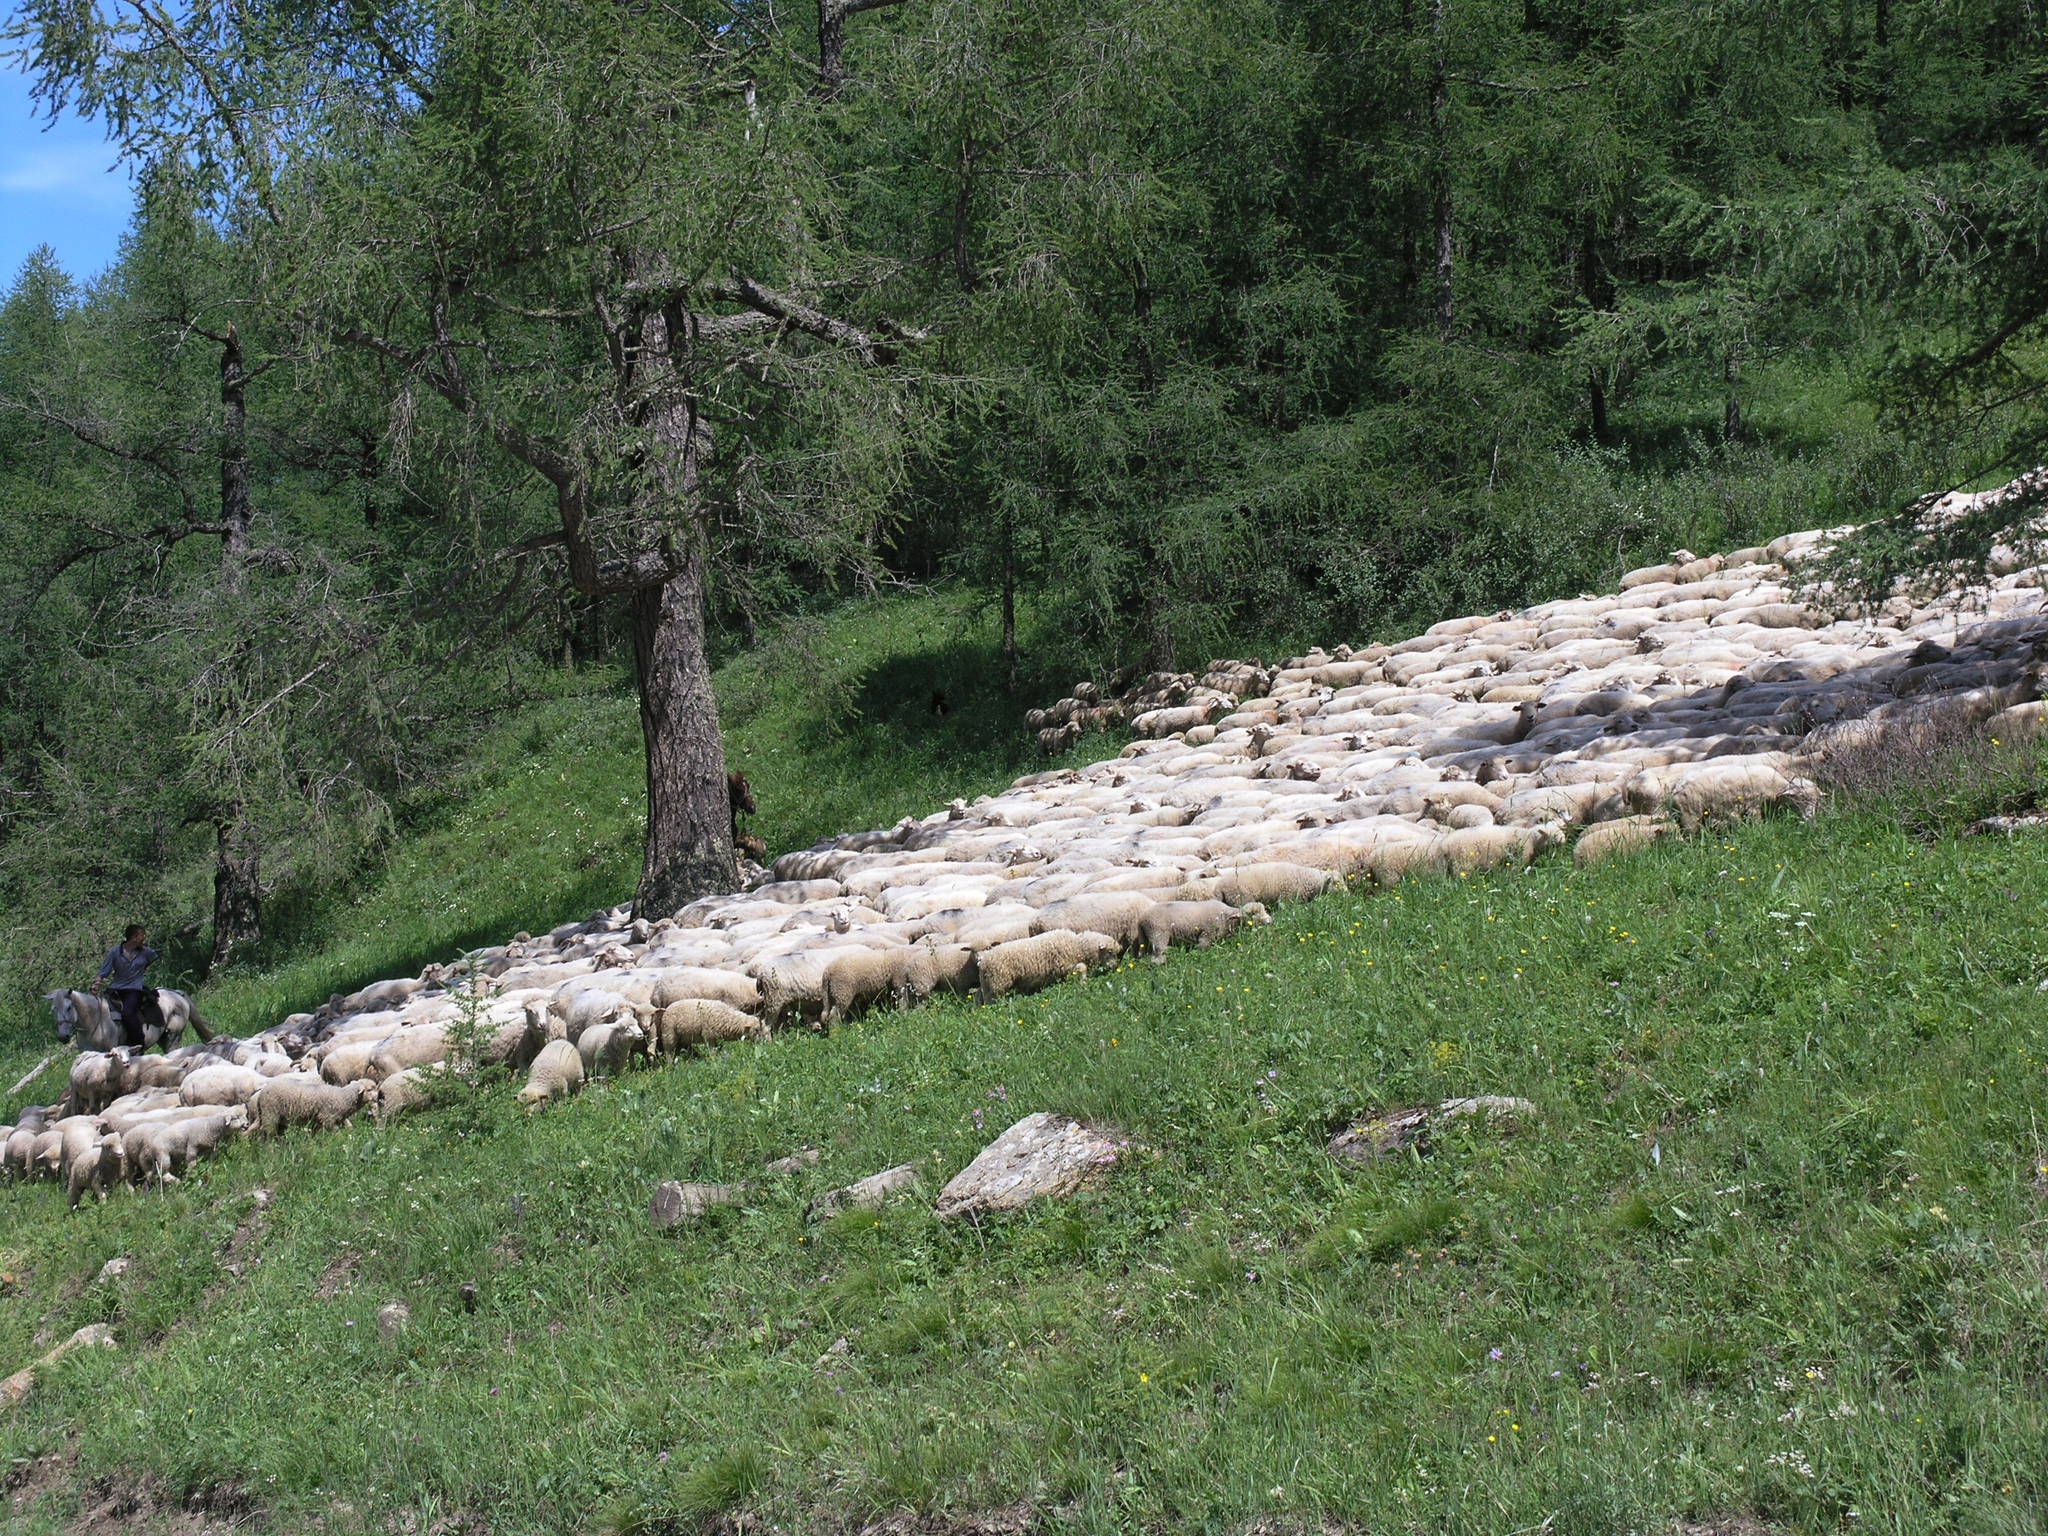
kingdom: Plantae
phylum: Tracheophyta
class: Pinopsida
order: Pinales
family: Pinaceae
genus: Larix
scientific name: Larix sibirica
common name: Siberian larch
